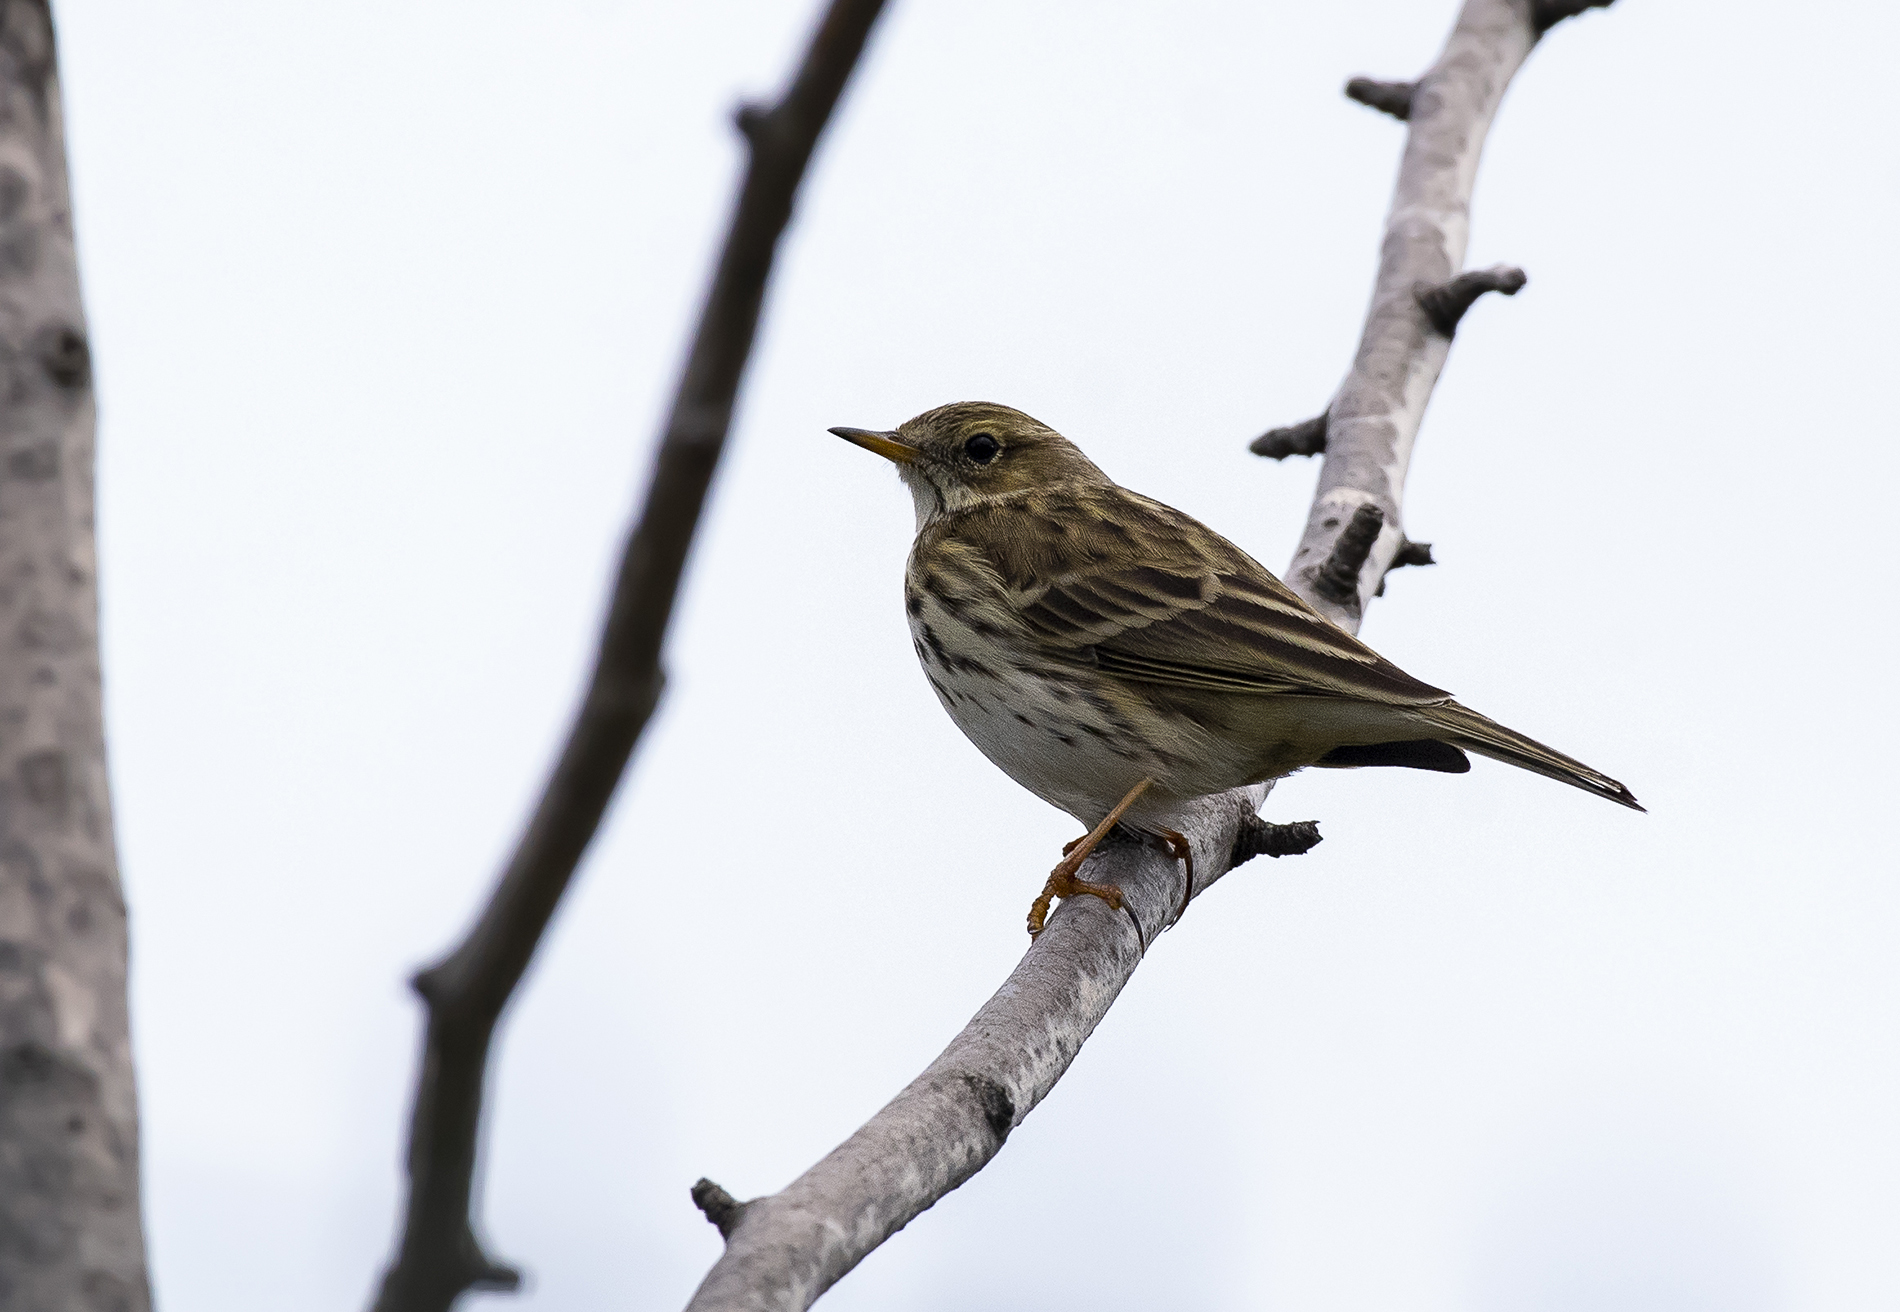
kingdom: Animalia
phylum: Chordata
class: Aves
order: Passeriformes
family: Motacillidae
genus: Anthus
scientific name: Anthus pratensis
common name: Meadow pipit
